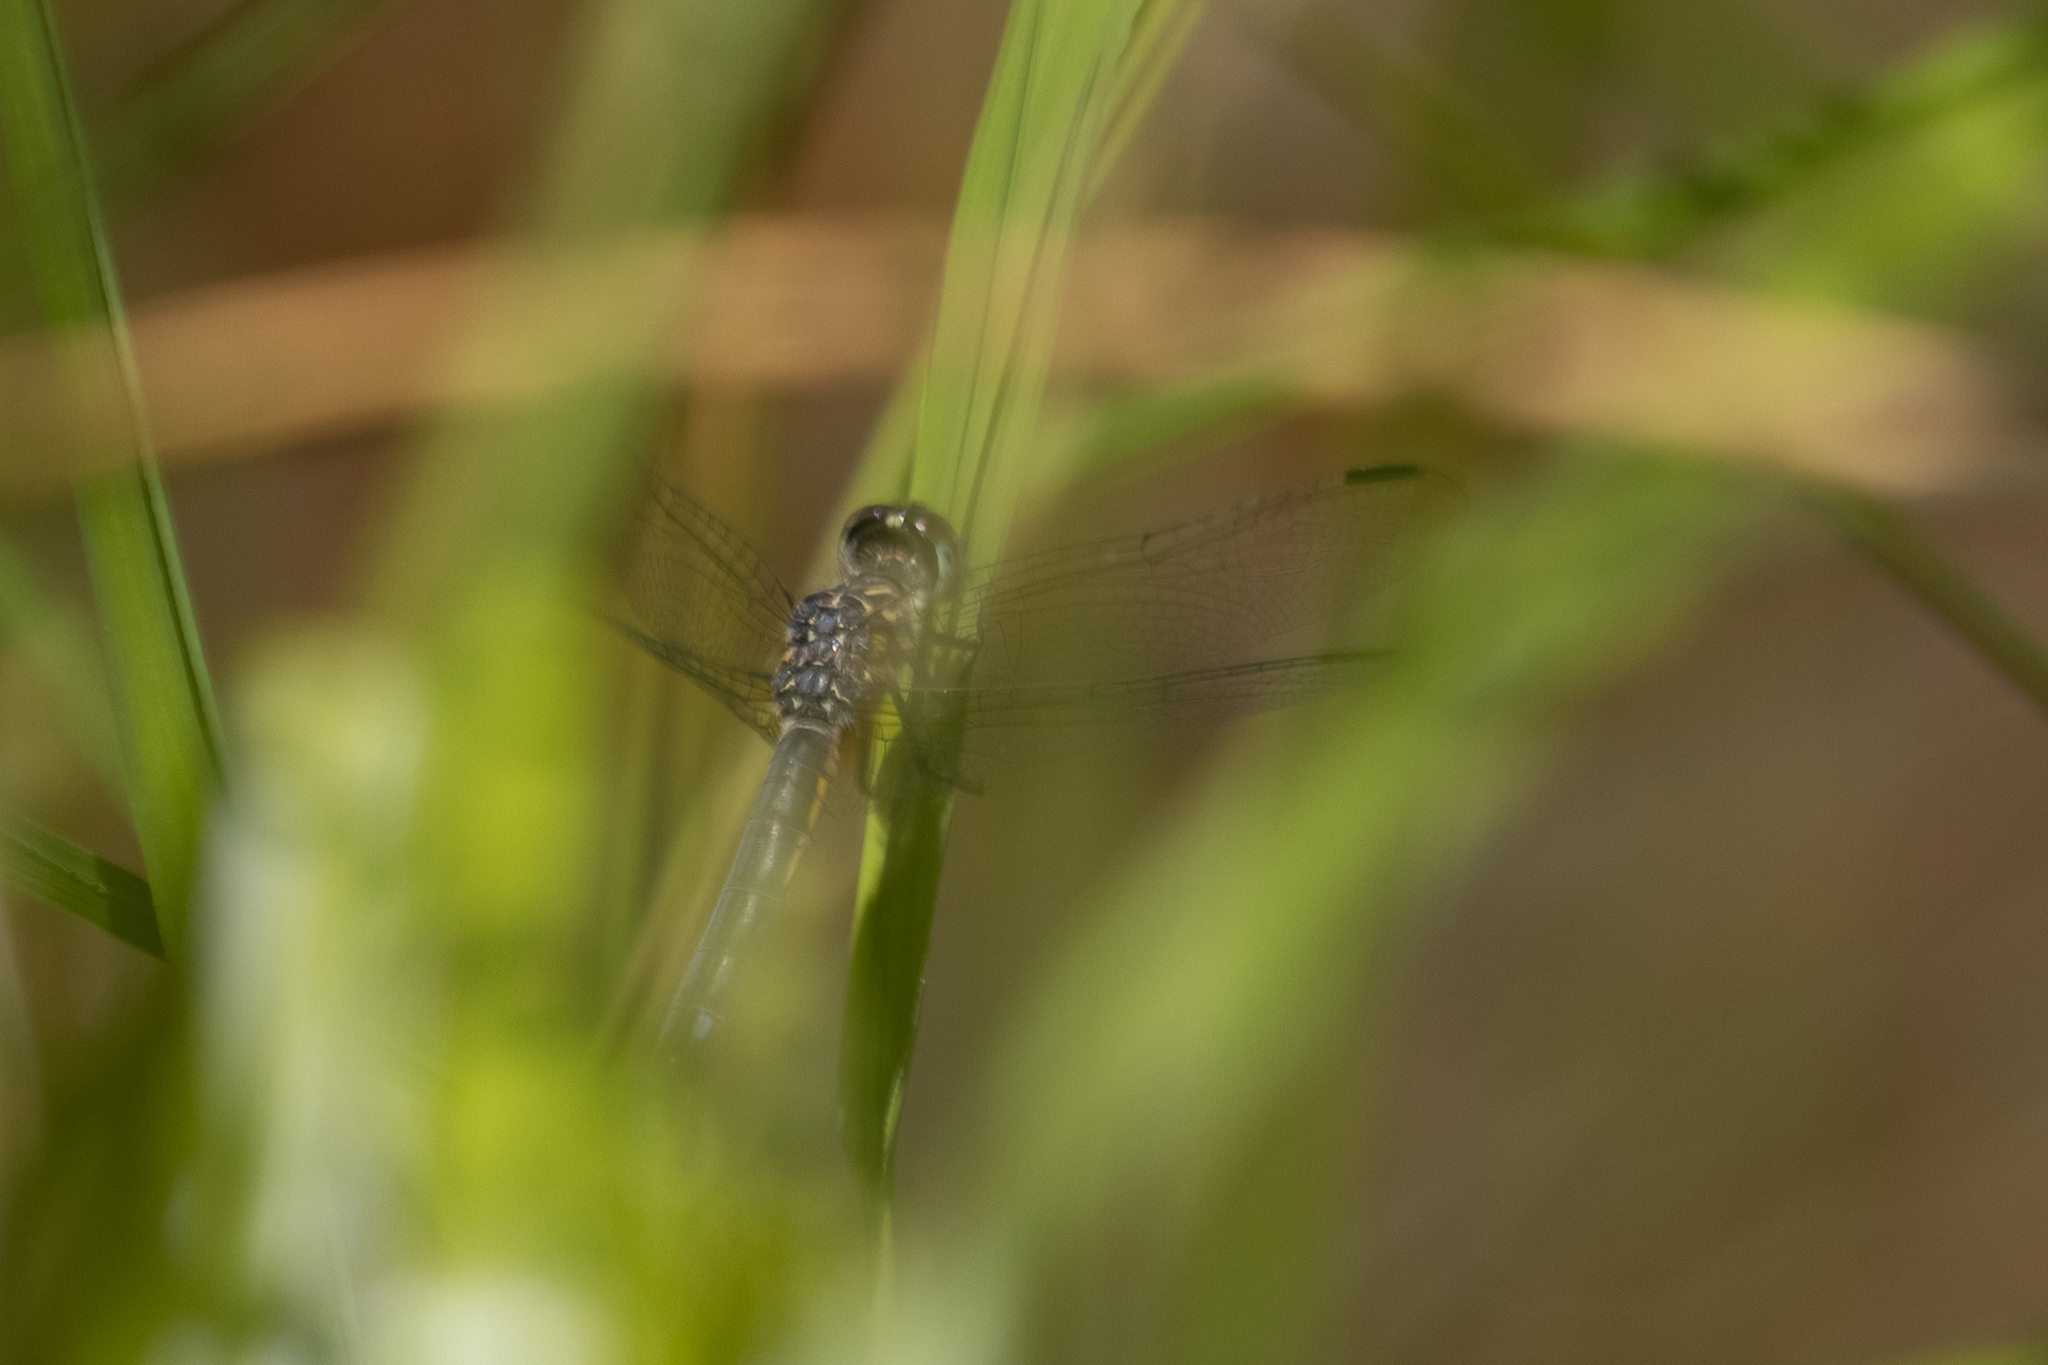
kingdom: Animalia
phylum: Arthropoda
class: Insecta
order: Odonata
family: Libellulidae
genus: Pachydiplax
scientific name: Pachydiplax longipennis
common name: Blue dasher
